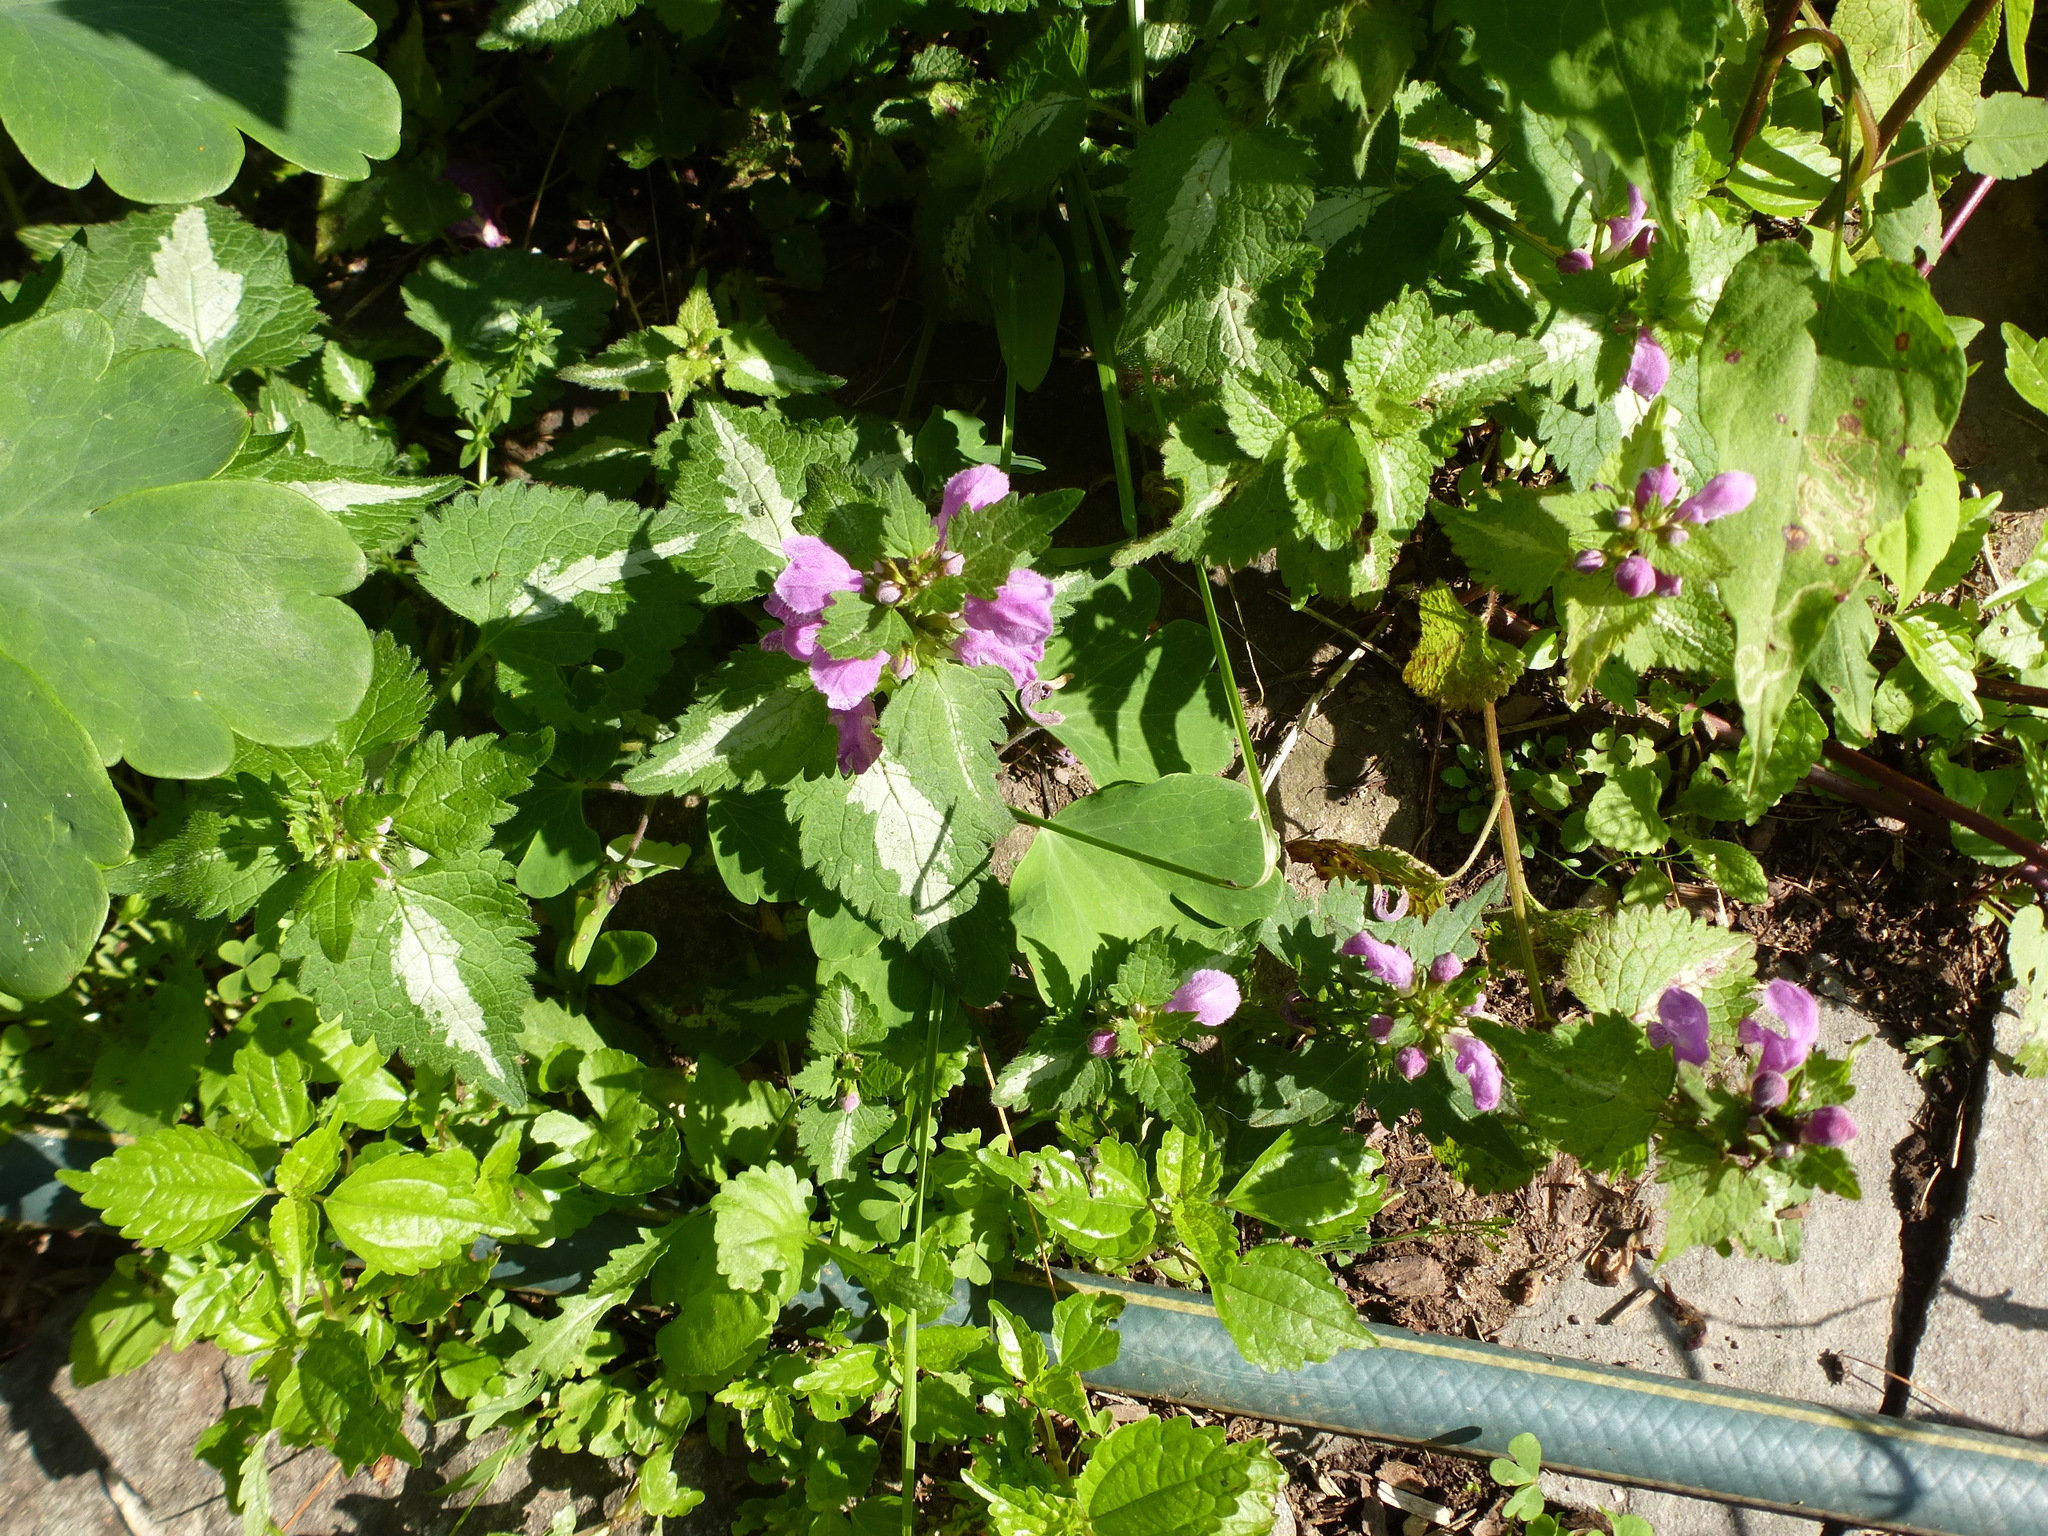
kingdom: Plantae
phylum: Tracheophyta
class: Magnoliopsida
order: Lamiales
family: Lamiaceae
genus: Lamium
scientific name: Lamium maculatum
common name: Spotted dead-nettle
